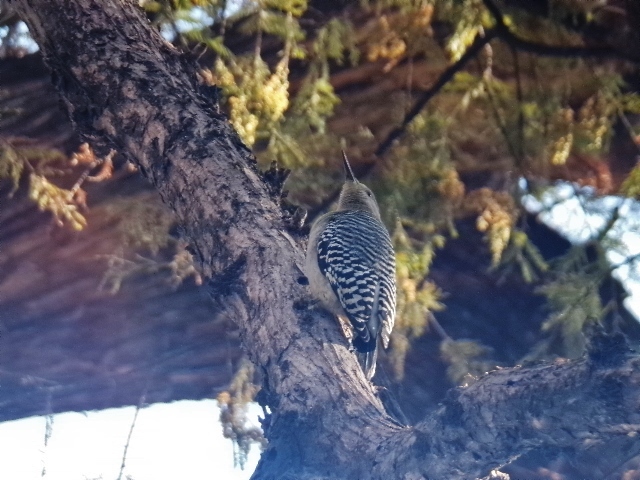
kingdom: Animalia
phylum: Chordata
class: Aves
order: Piciformes
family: Picidae
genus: Melanerpes
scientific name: Melanerpes aurifrons
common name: Golden-fronted woodpecker
